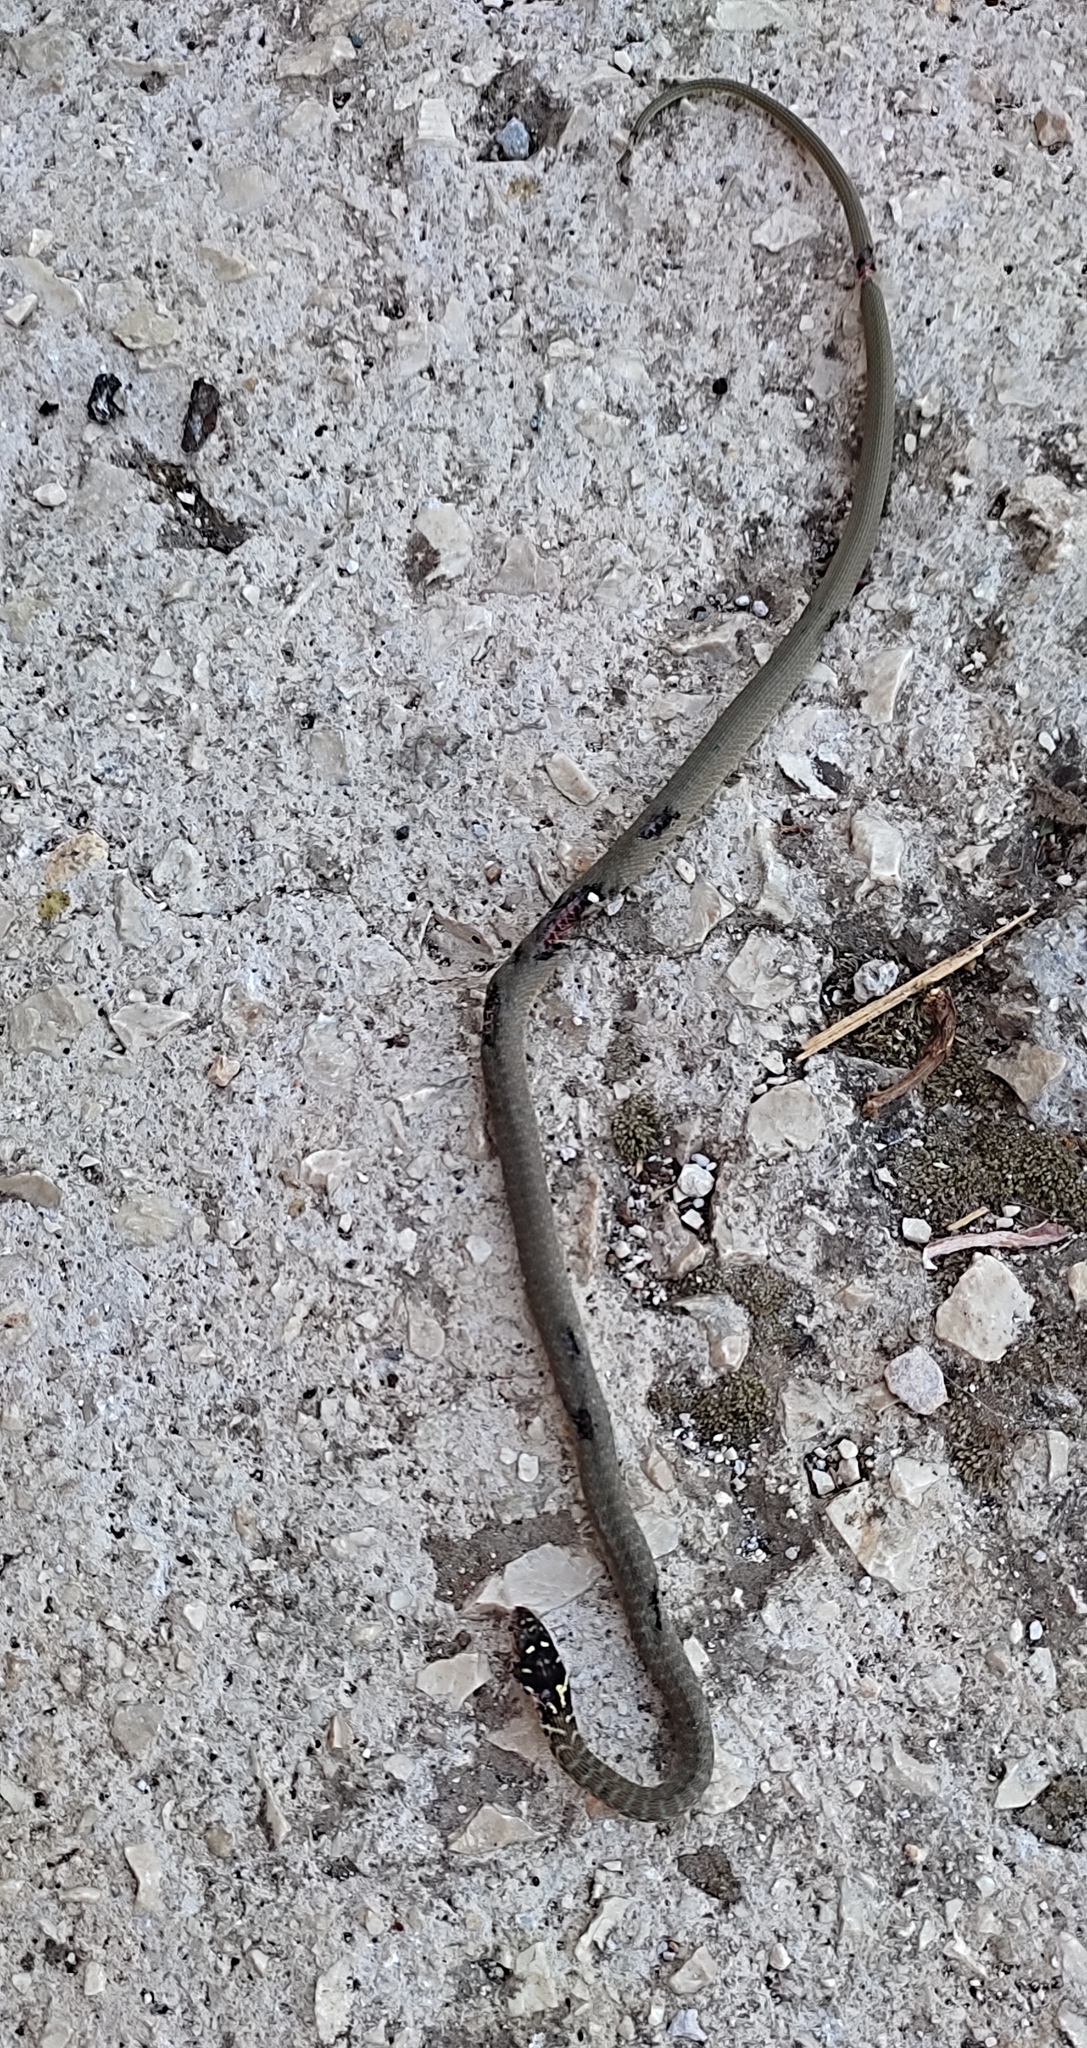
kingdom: Animalia
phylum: Chordata
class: Squamata
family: Colubridae
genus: Hierophis
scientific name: Hierophis viridiflavus
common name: Green whip snake
